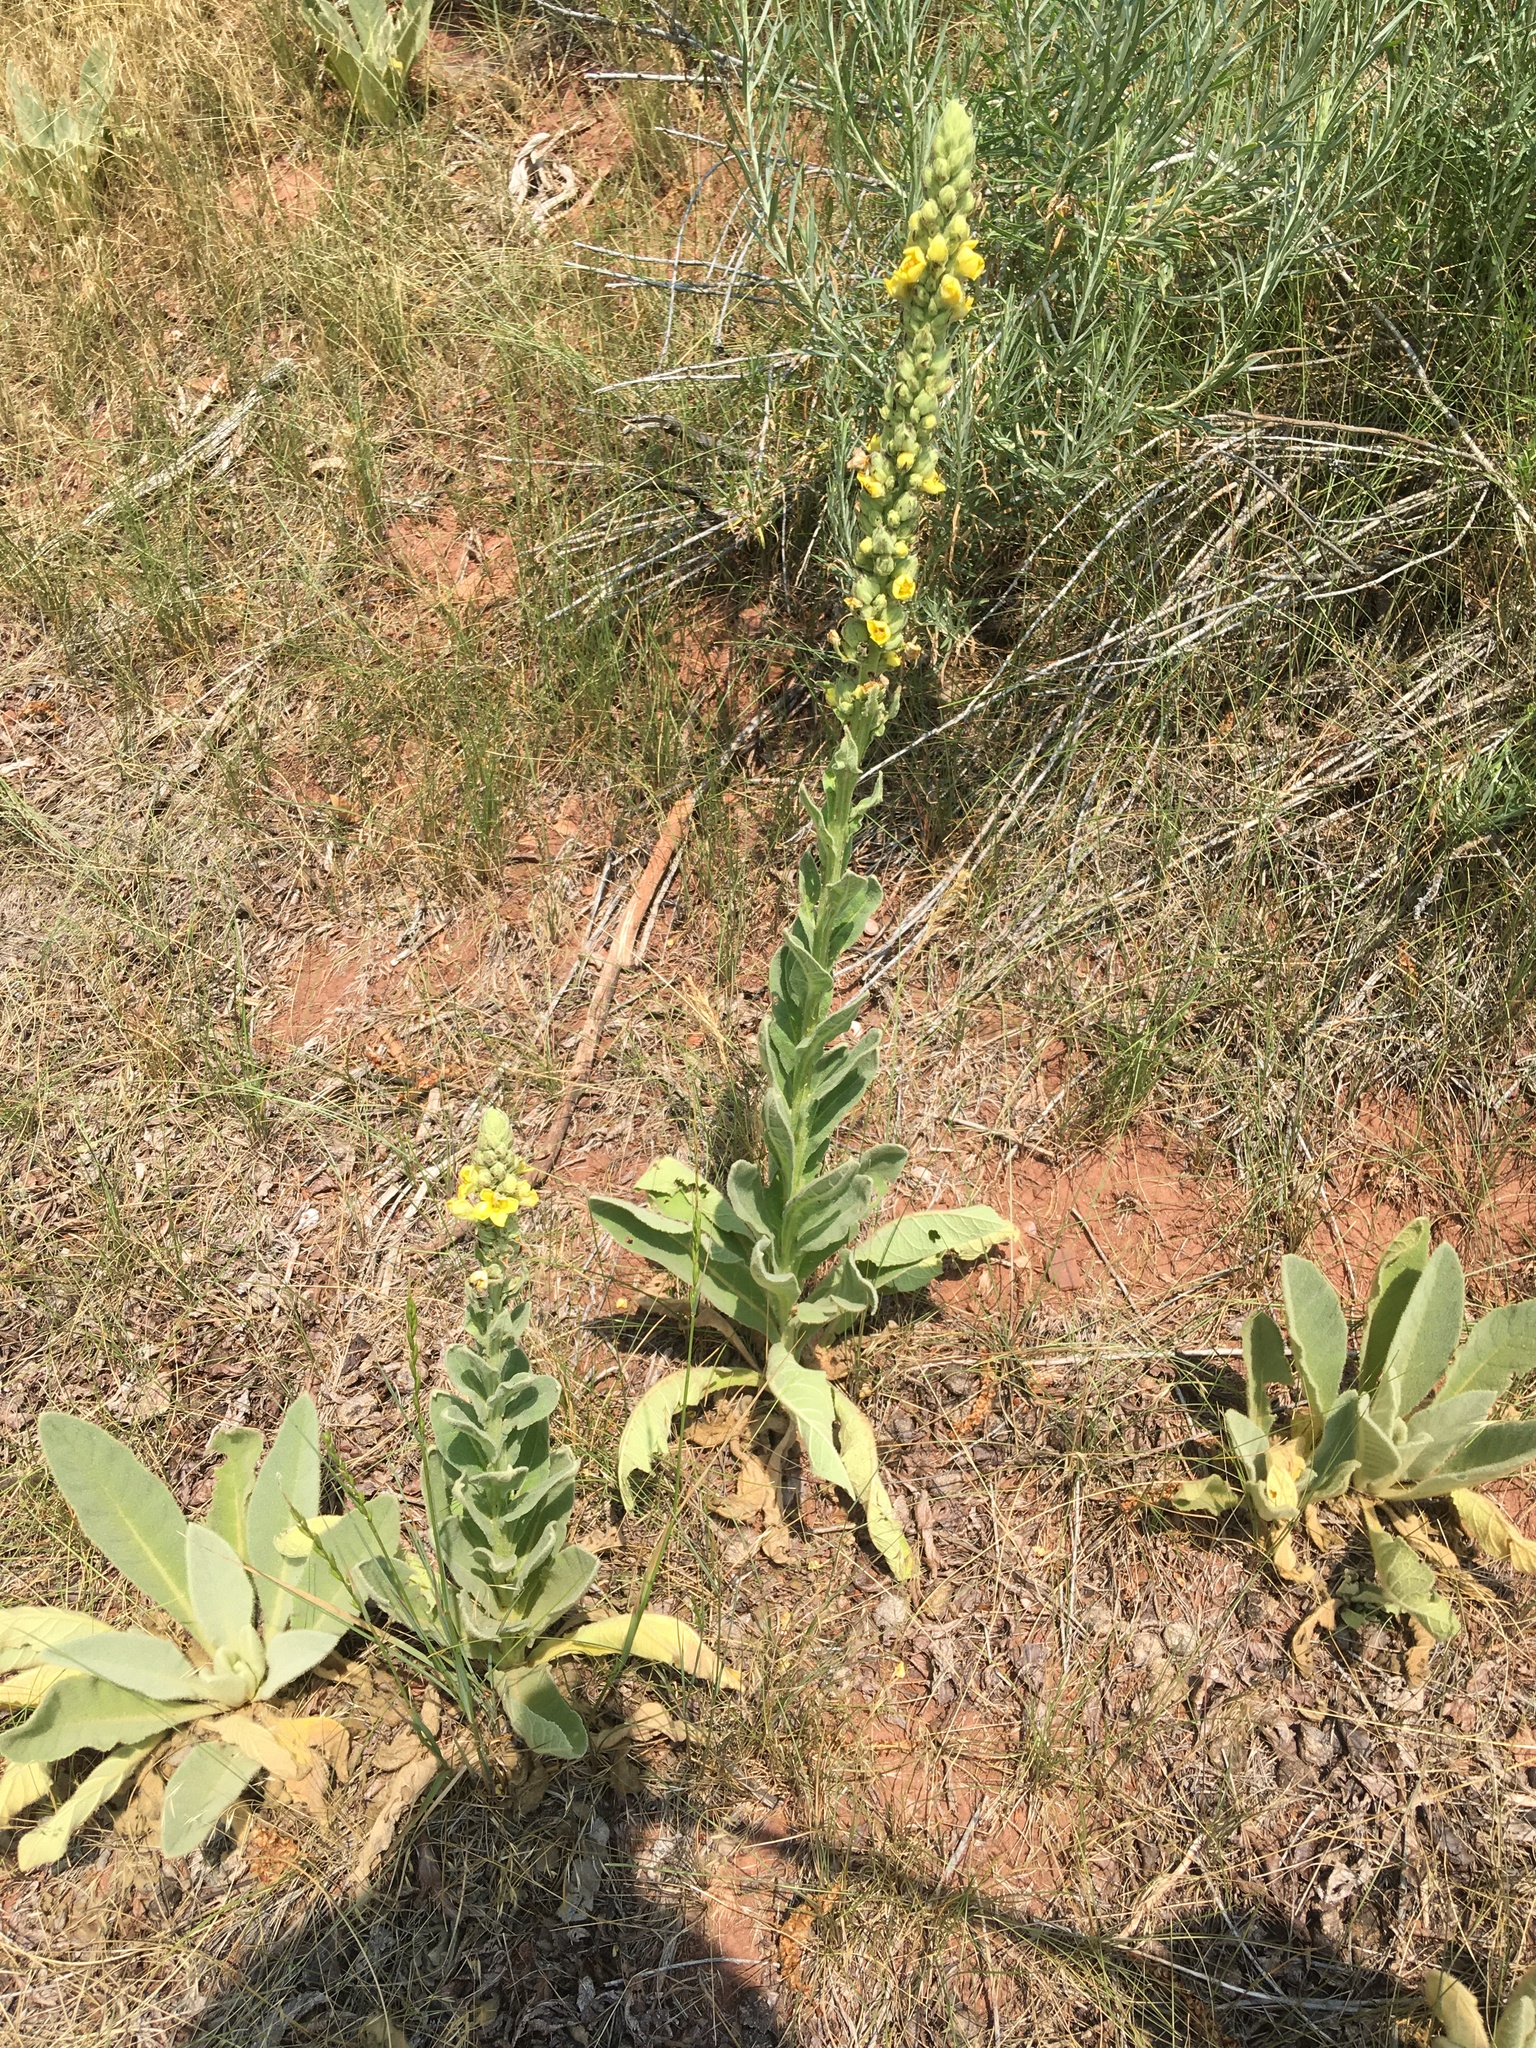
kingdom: Plantae
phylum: Tracheophyta
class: Magnoliopsida
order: Lamiales
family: Scrophulariaceae
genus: Verbascum
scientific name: Verbascum thapsus
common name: Common mullein
